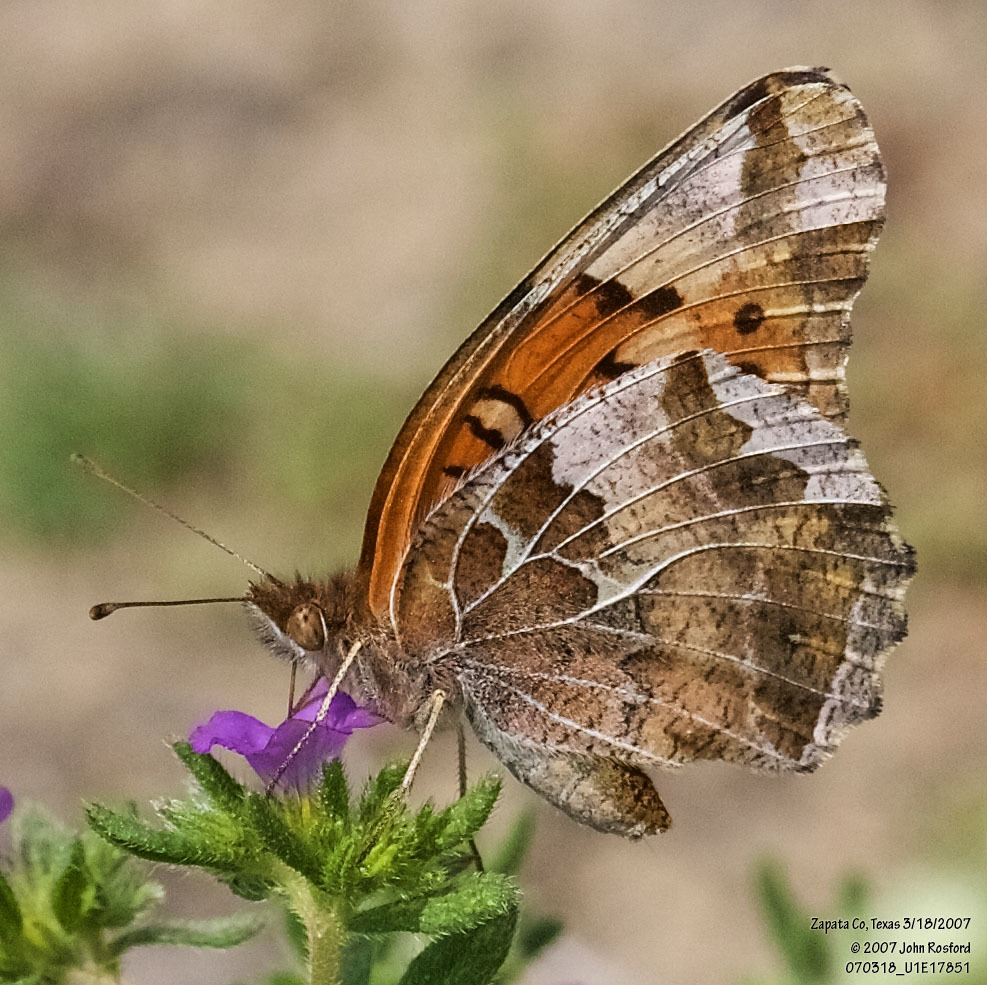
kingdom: Animalia
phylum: Arthropoda
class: Insecta
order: Lepidoptera
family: Nymphalidae
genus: Euptoieta
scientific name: Euptoieta claudia
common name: Variegated fritillary
